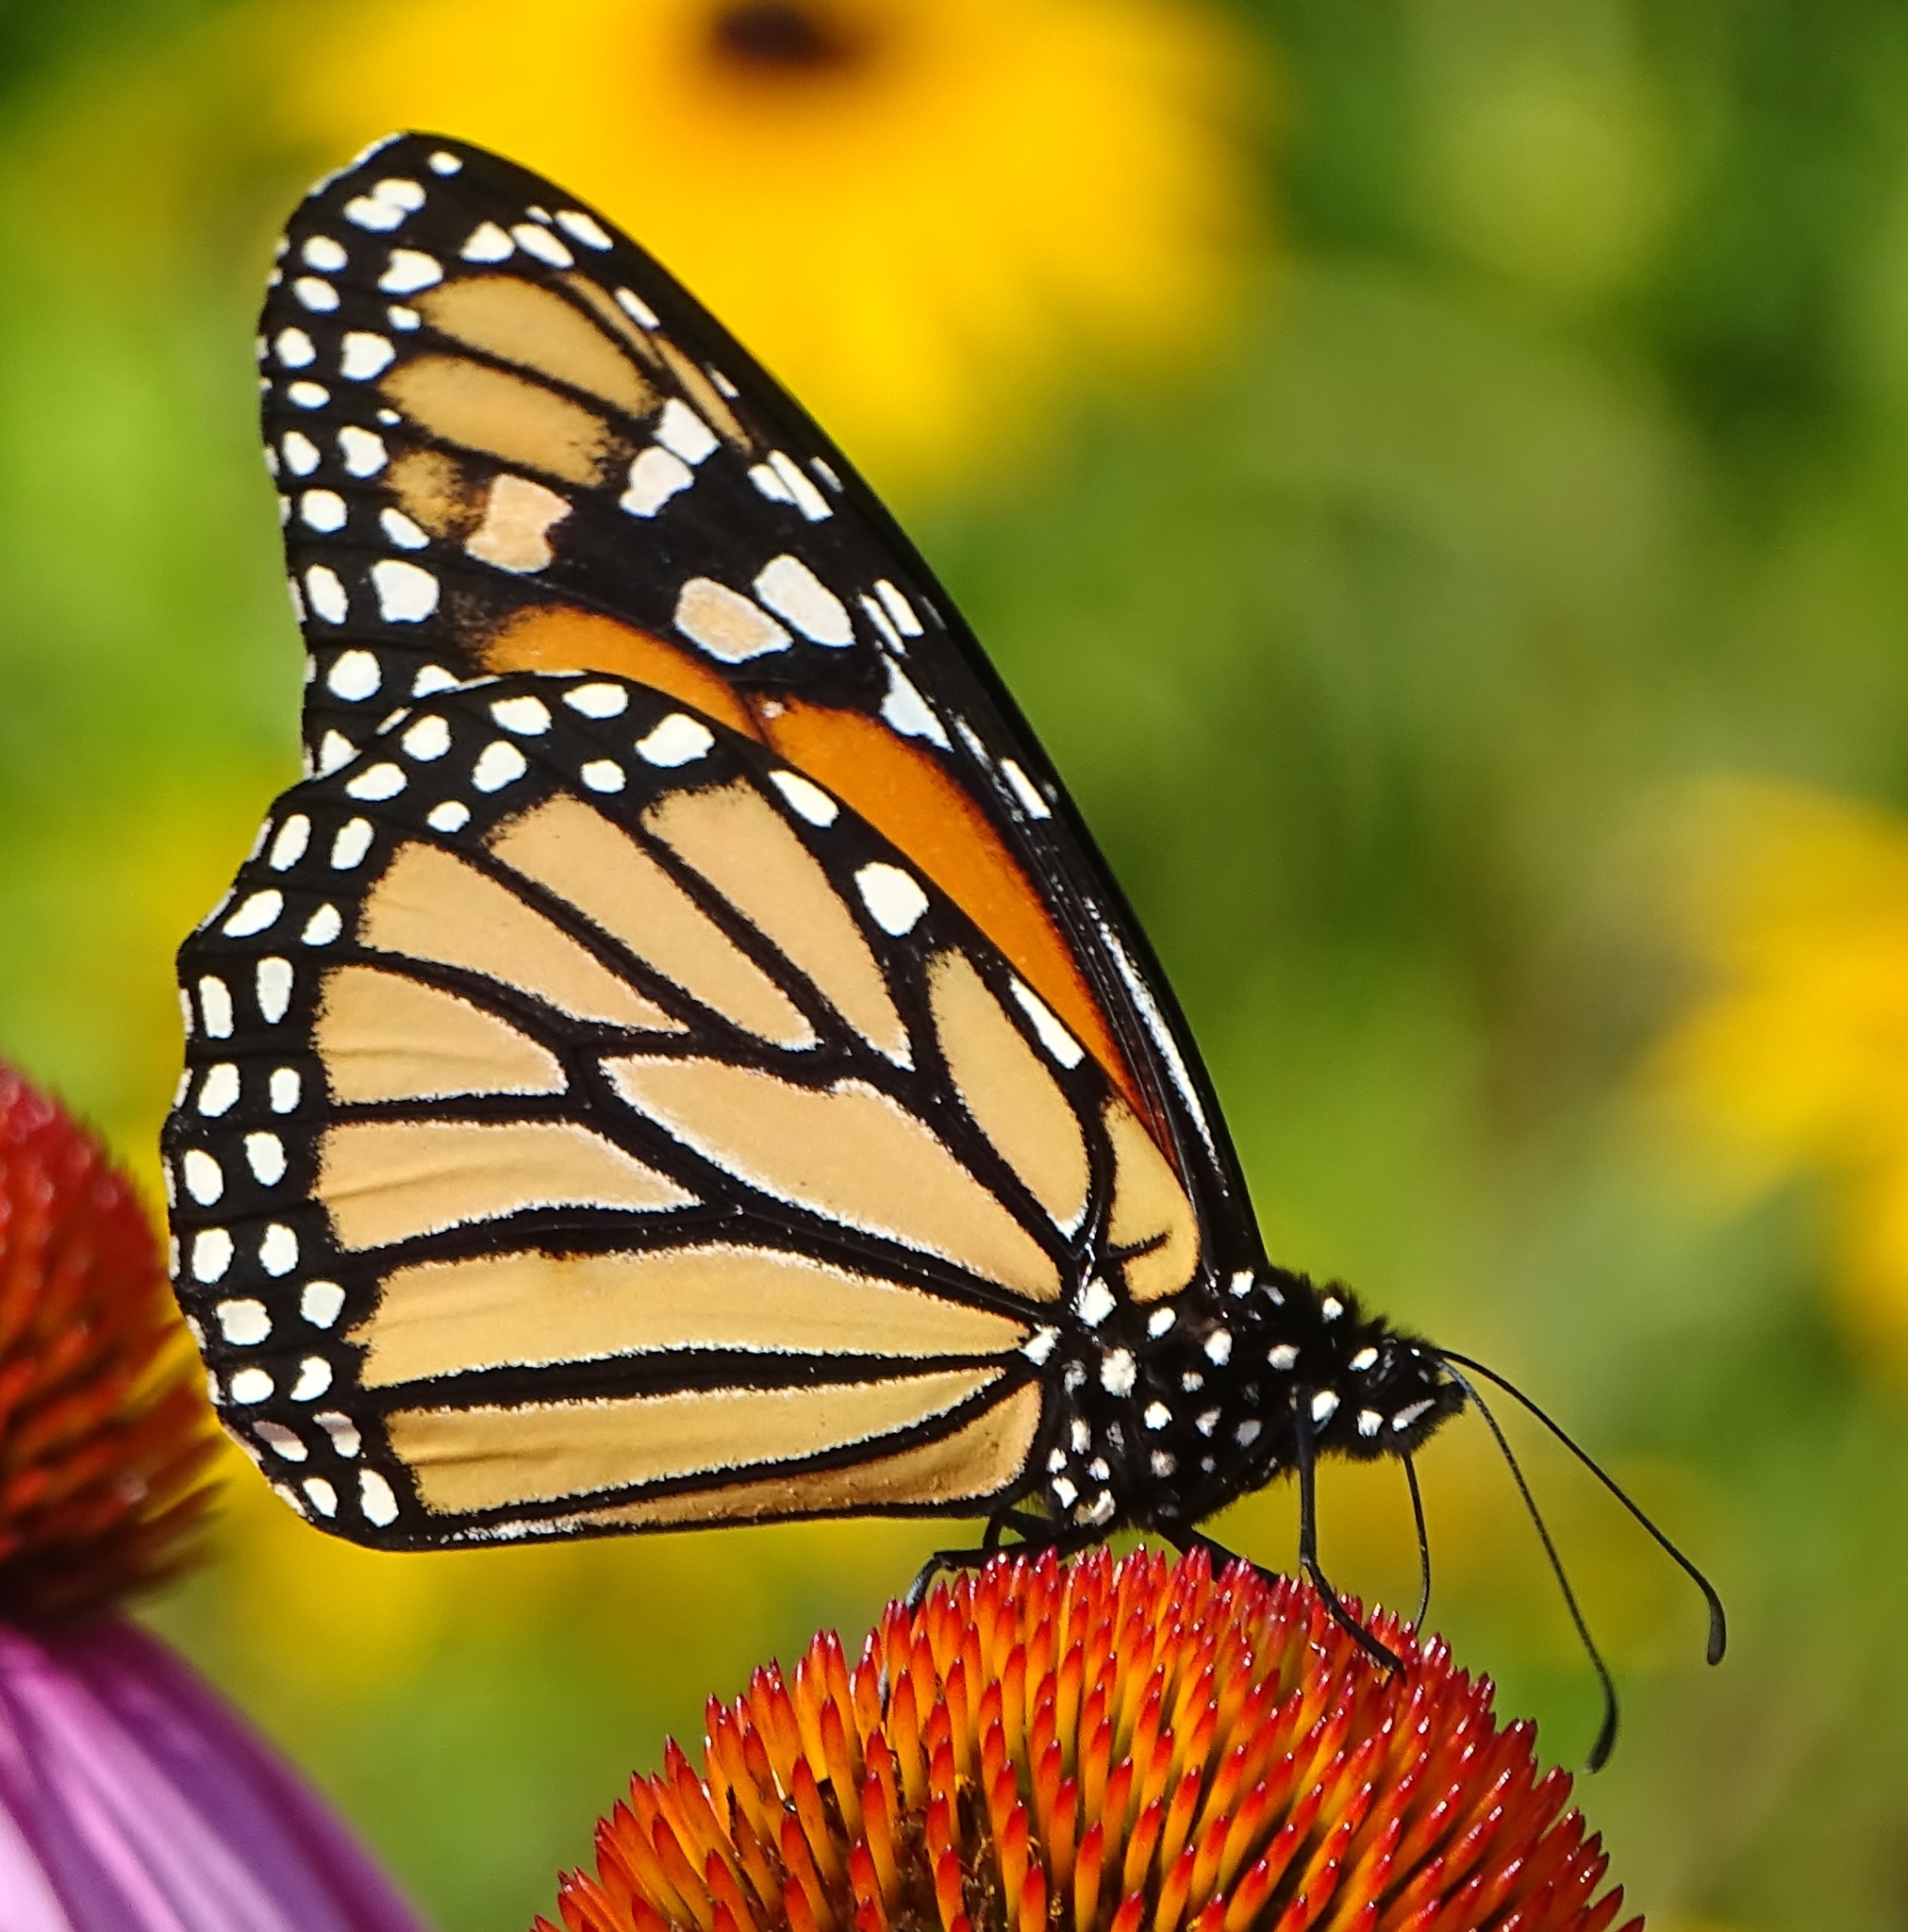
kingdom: Animalia
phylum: Arthropoda
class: Insecta
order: Lepidoptera
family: Nymphalidae
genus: Danaus
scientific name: Danaus plexippus
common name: Monarch
